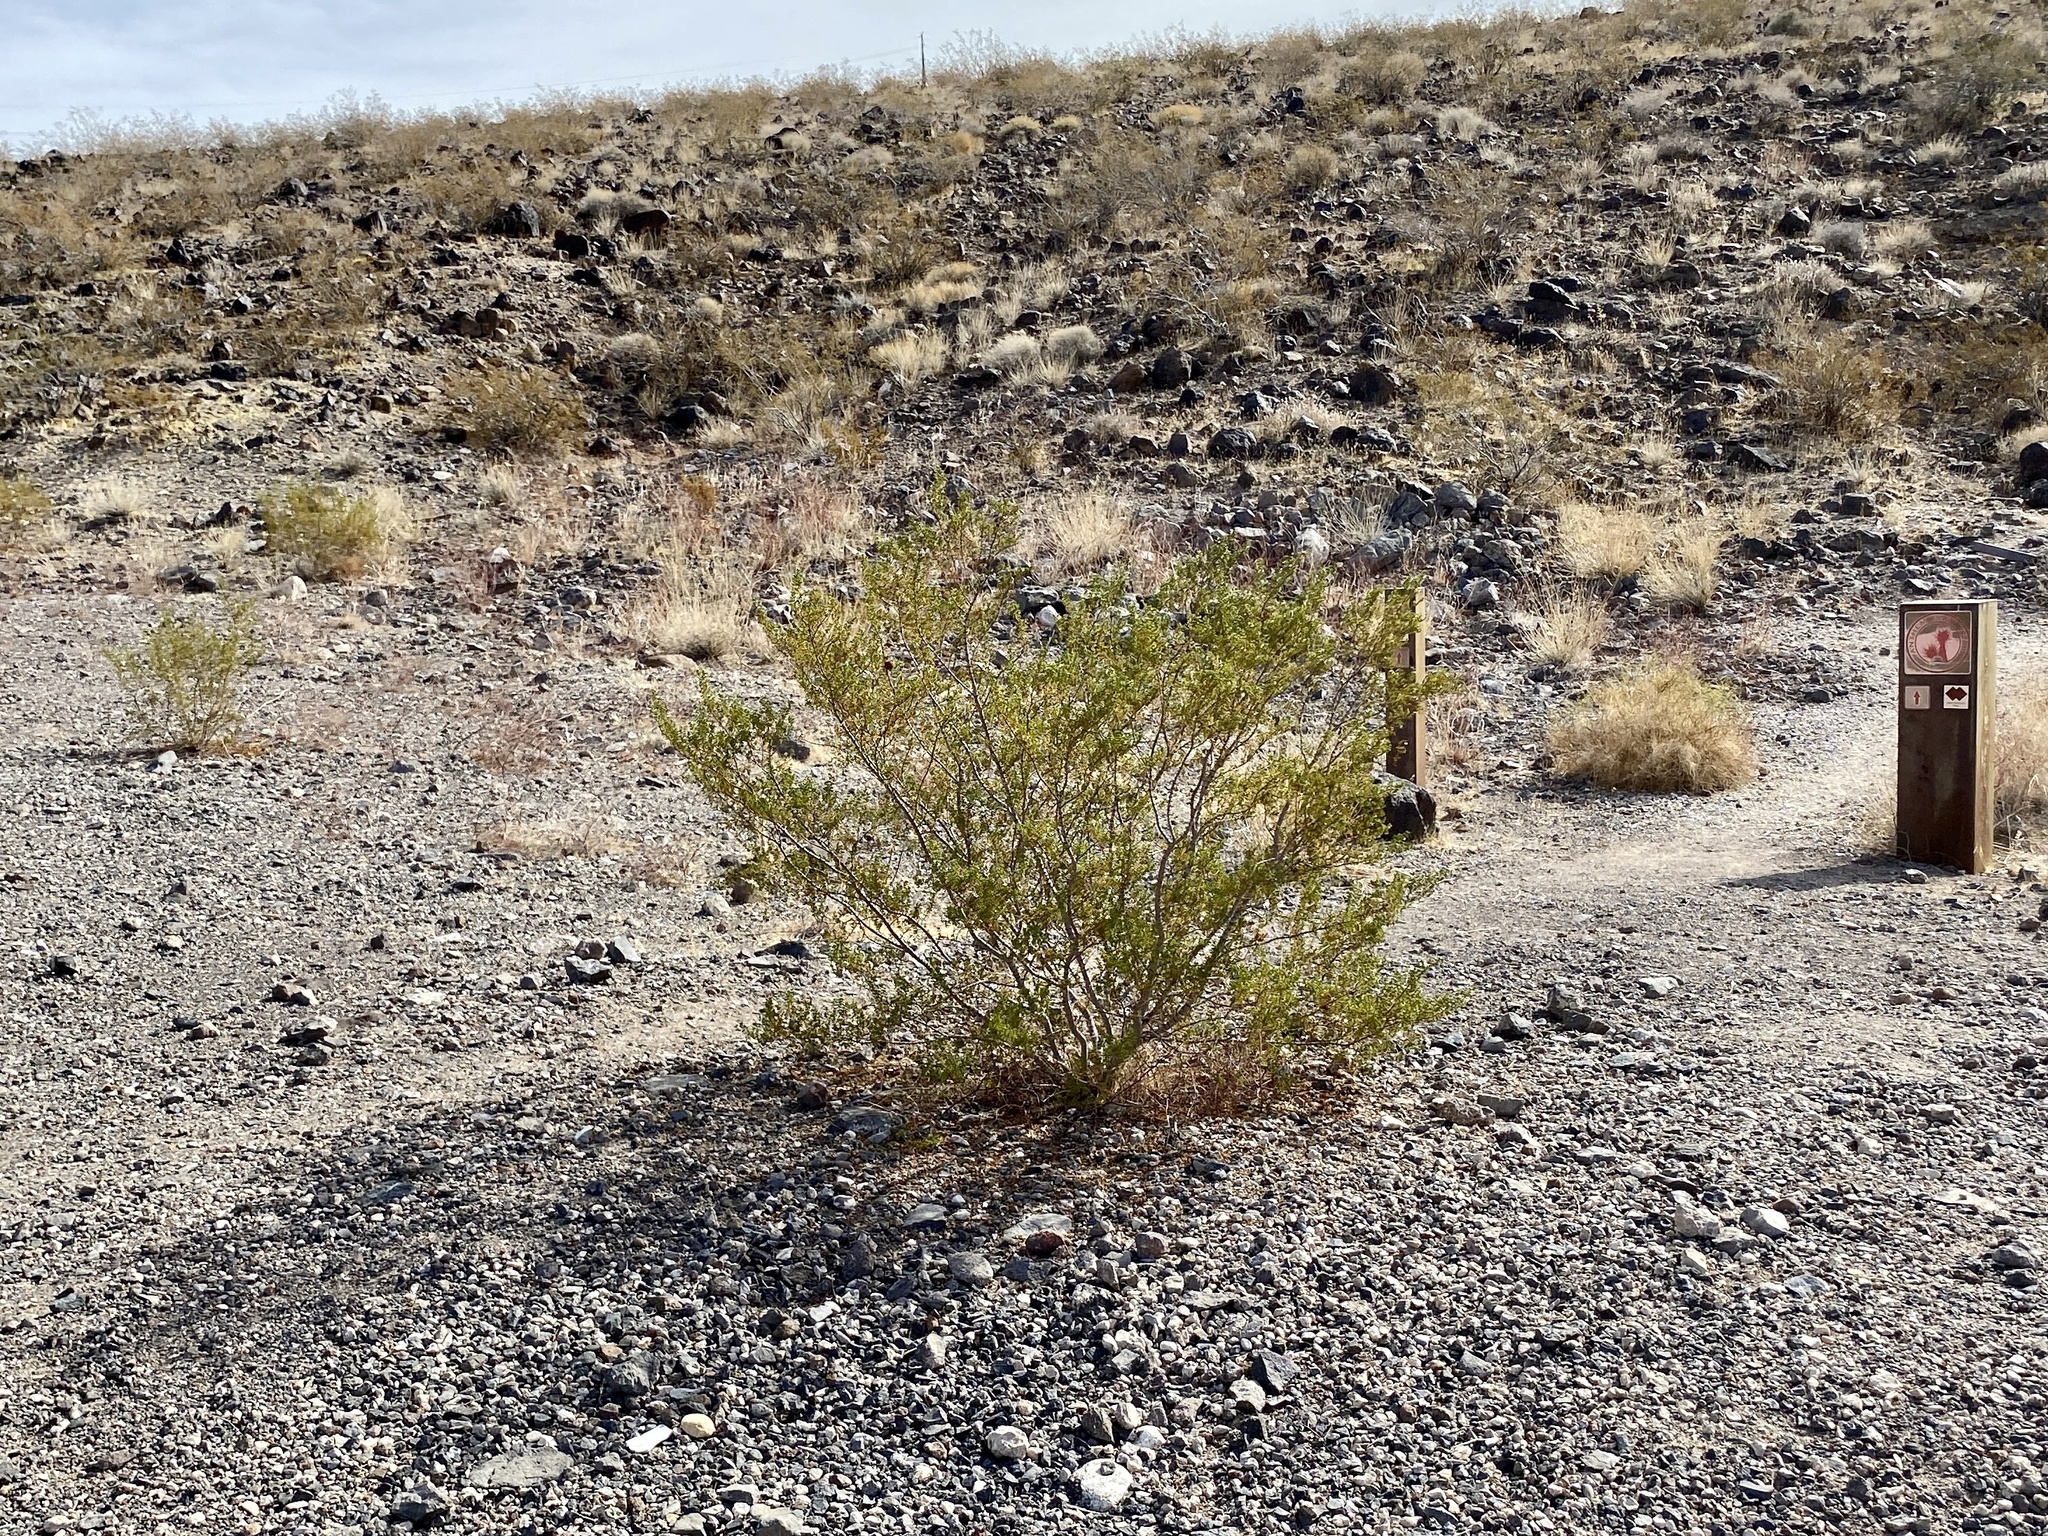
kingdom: Plantae
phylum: Tracheophyta
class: Magnoliopsida
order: Zygophyllales
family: Zygophyllaceae
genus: Larrea
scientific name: Larrea tridentata
